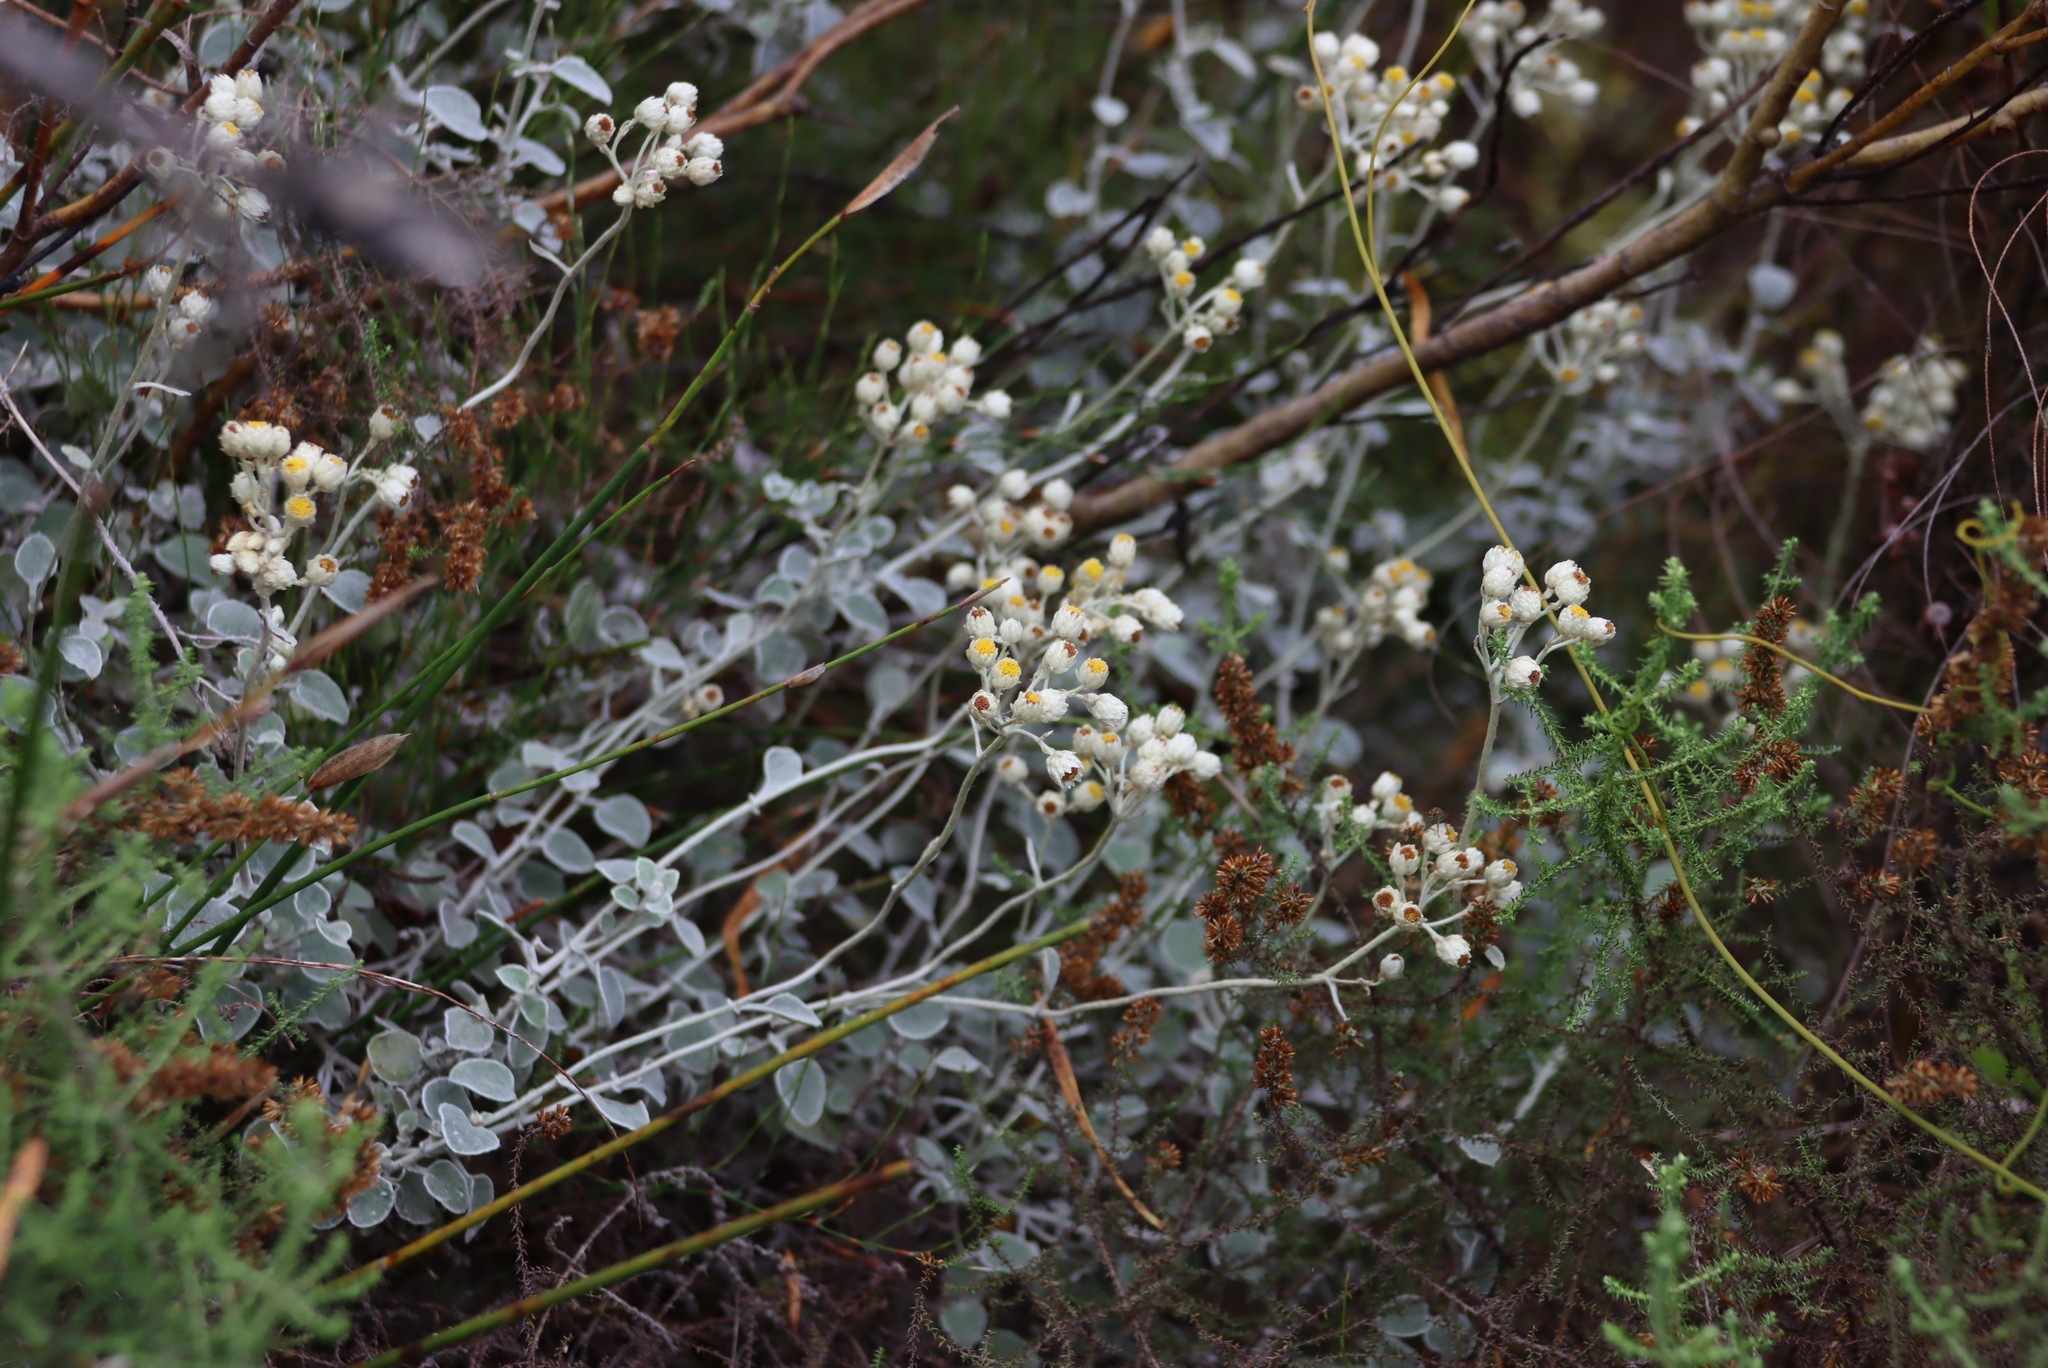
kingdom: Plantae
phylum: Tracheophyta
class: Magnoliopsida
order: Asterales
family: Asteraceae
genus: Helichrysum
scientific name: Helichrysum pandurifolium
